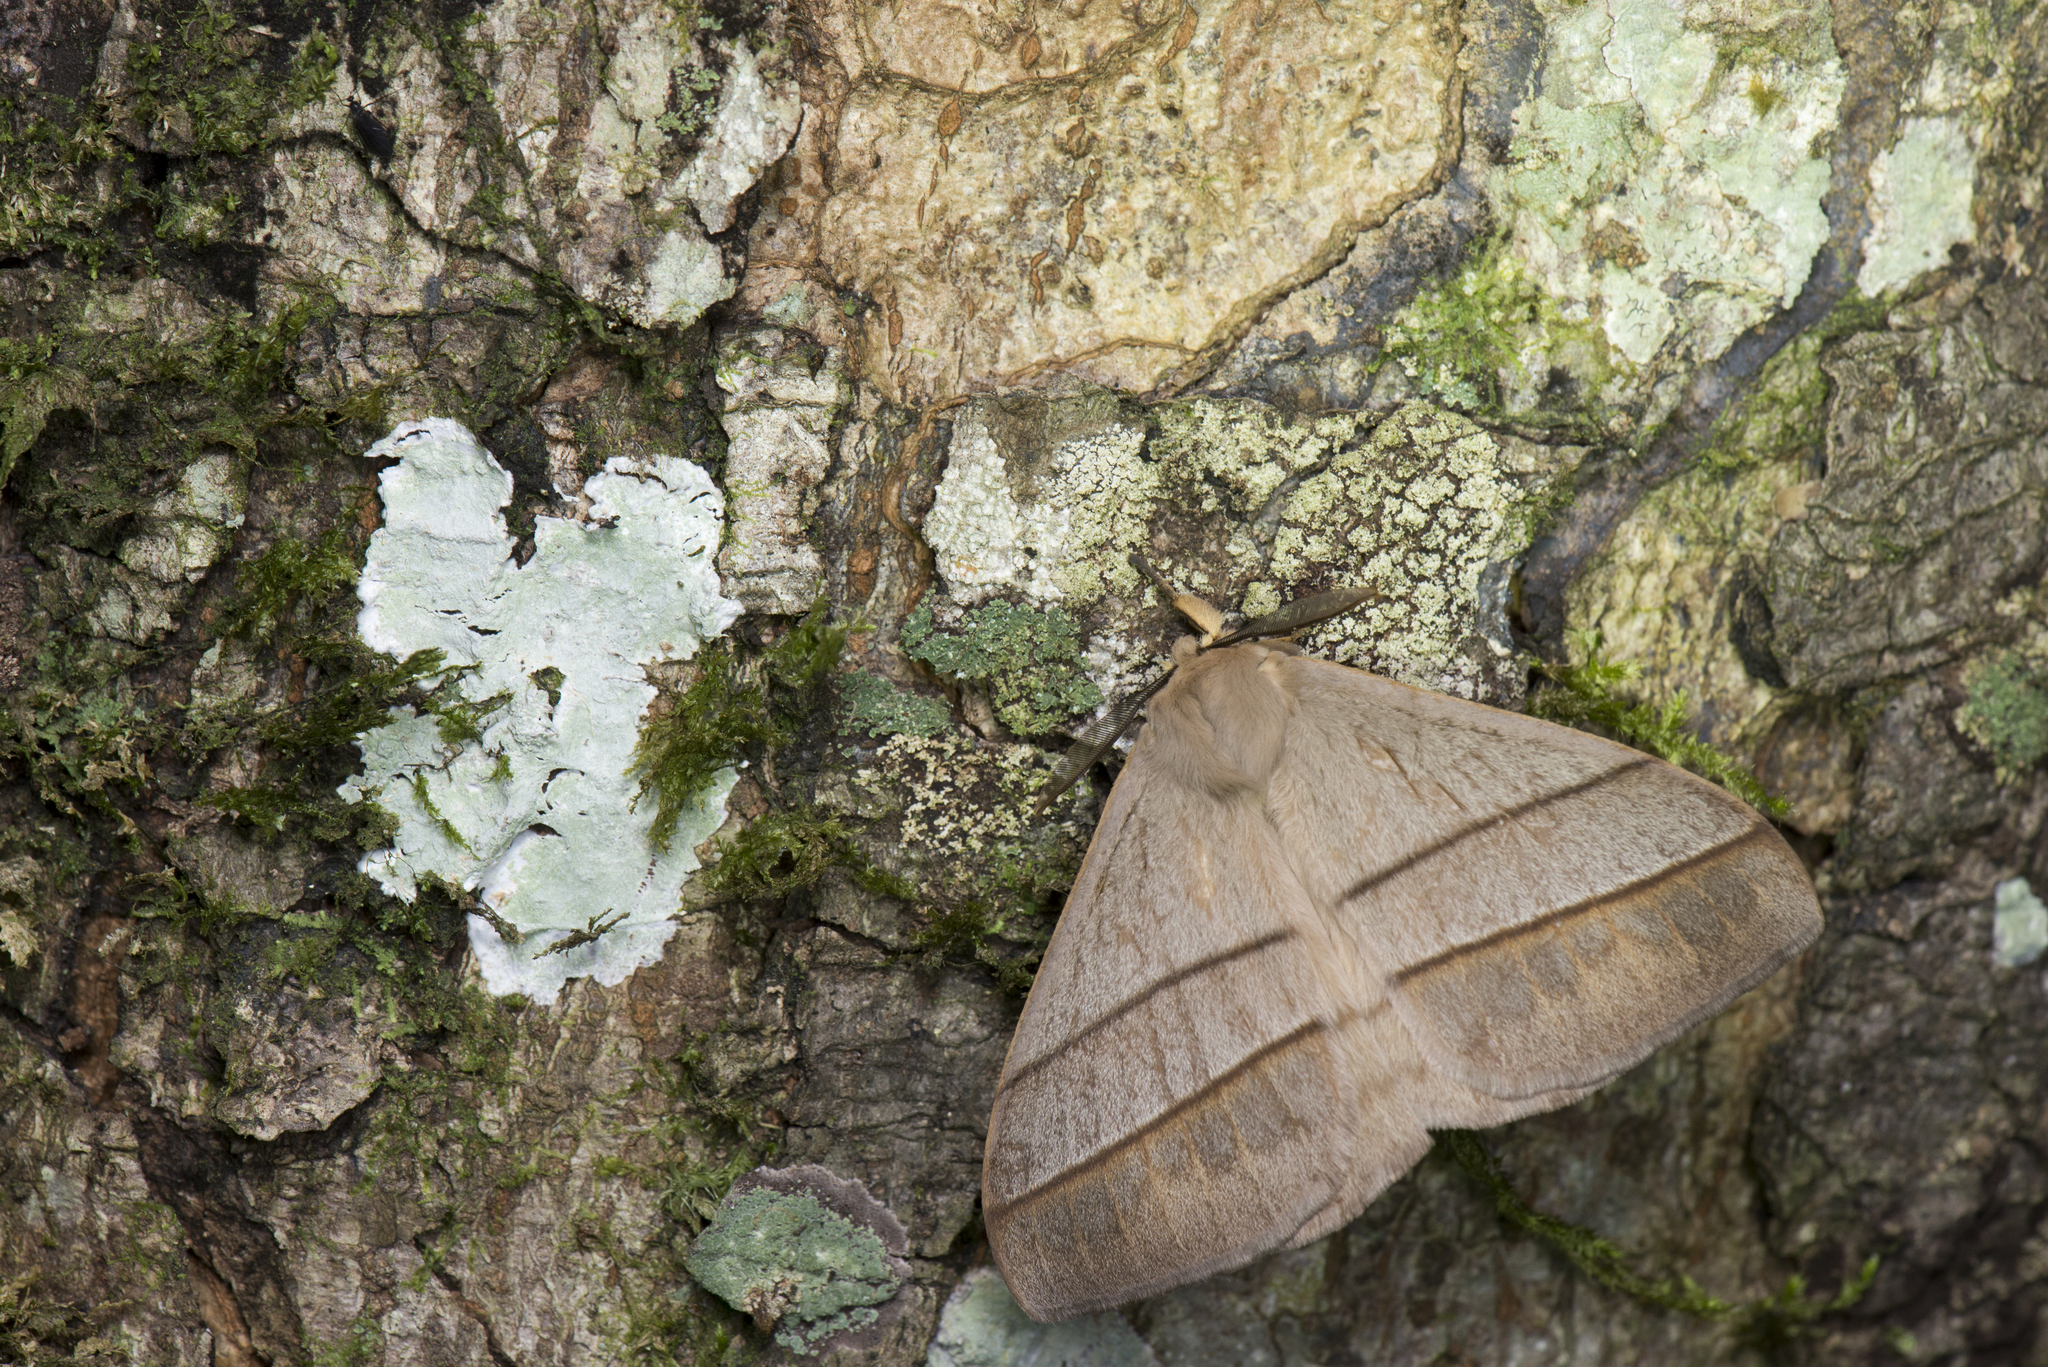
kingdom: Animalia
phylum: Arthropoda
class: Insecta
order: Lepidoptera
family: Eupterotidae
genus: Palirisa
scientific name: Palirisa cervina
